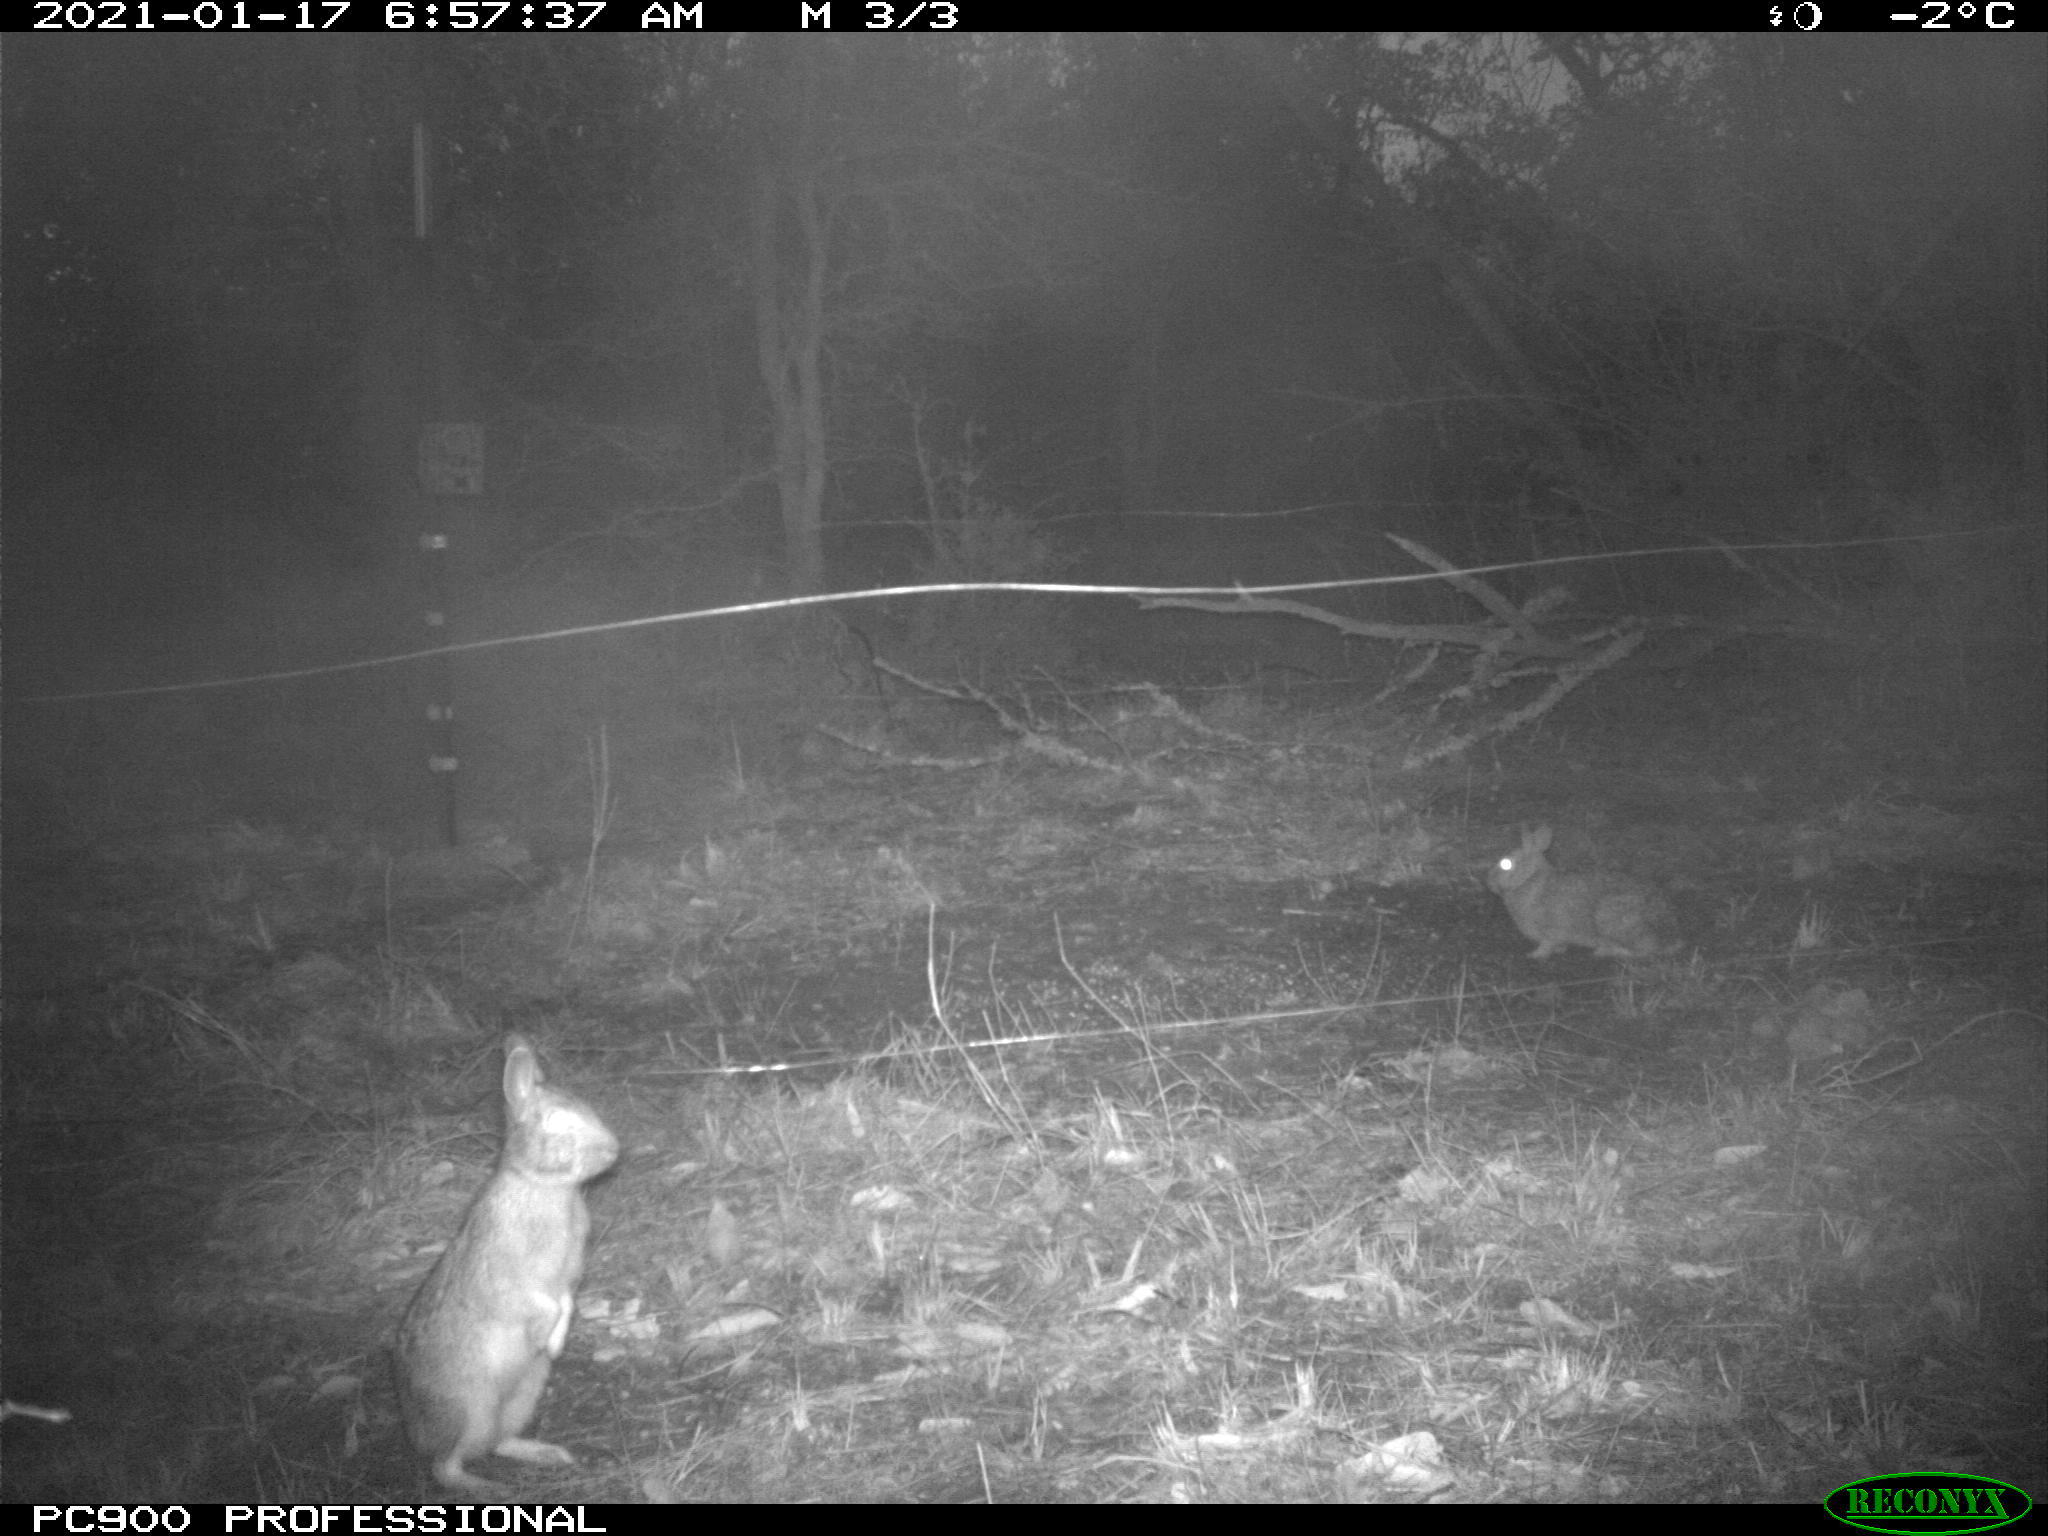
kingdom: Animalia
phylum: Chordata
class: Mammalia
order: Lagomorpha
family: Leporidae
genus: Sylvilagus
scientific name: Sylvilagus floridanus
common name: Eastern cottontail
